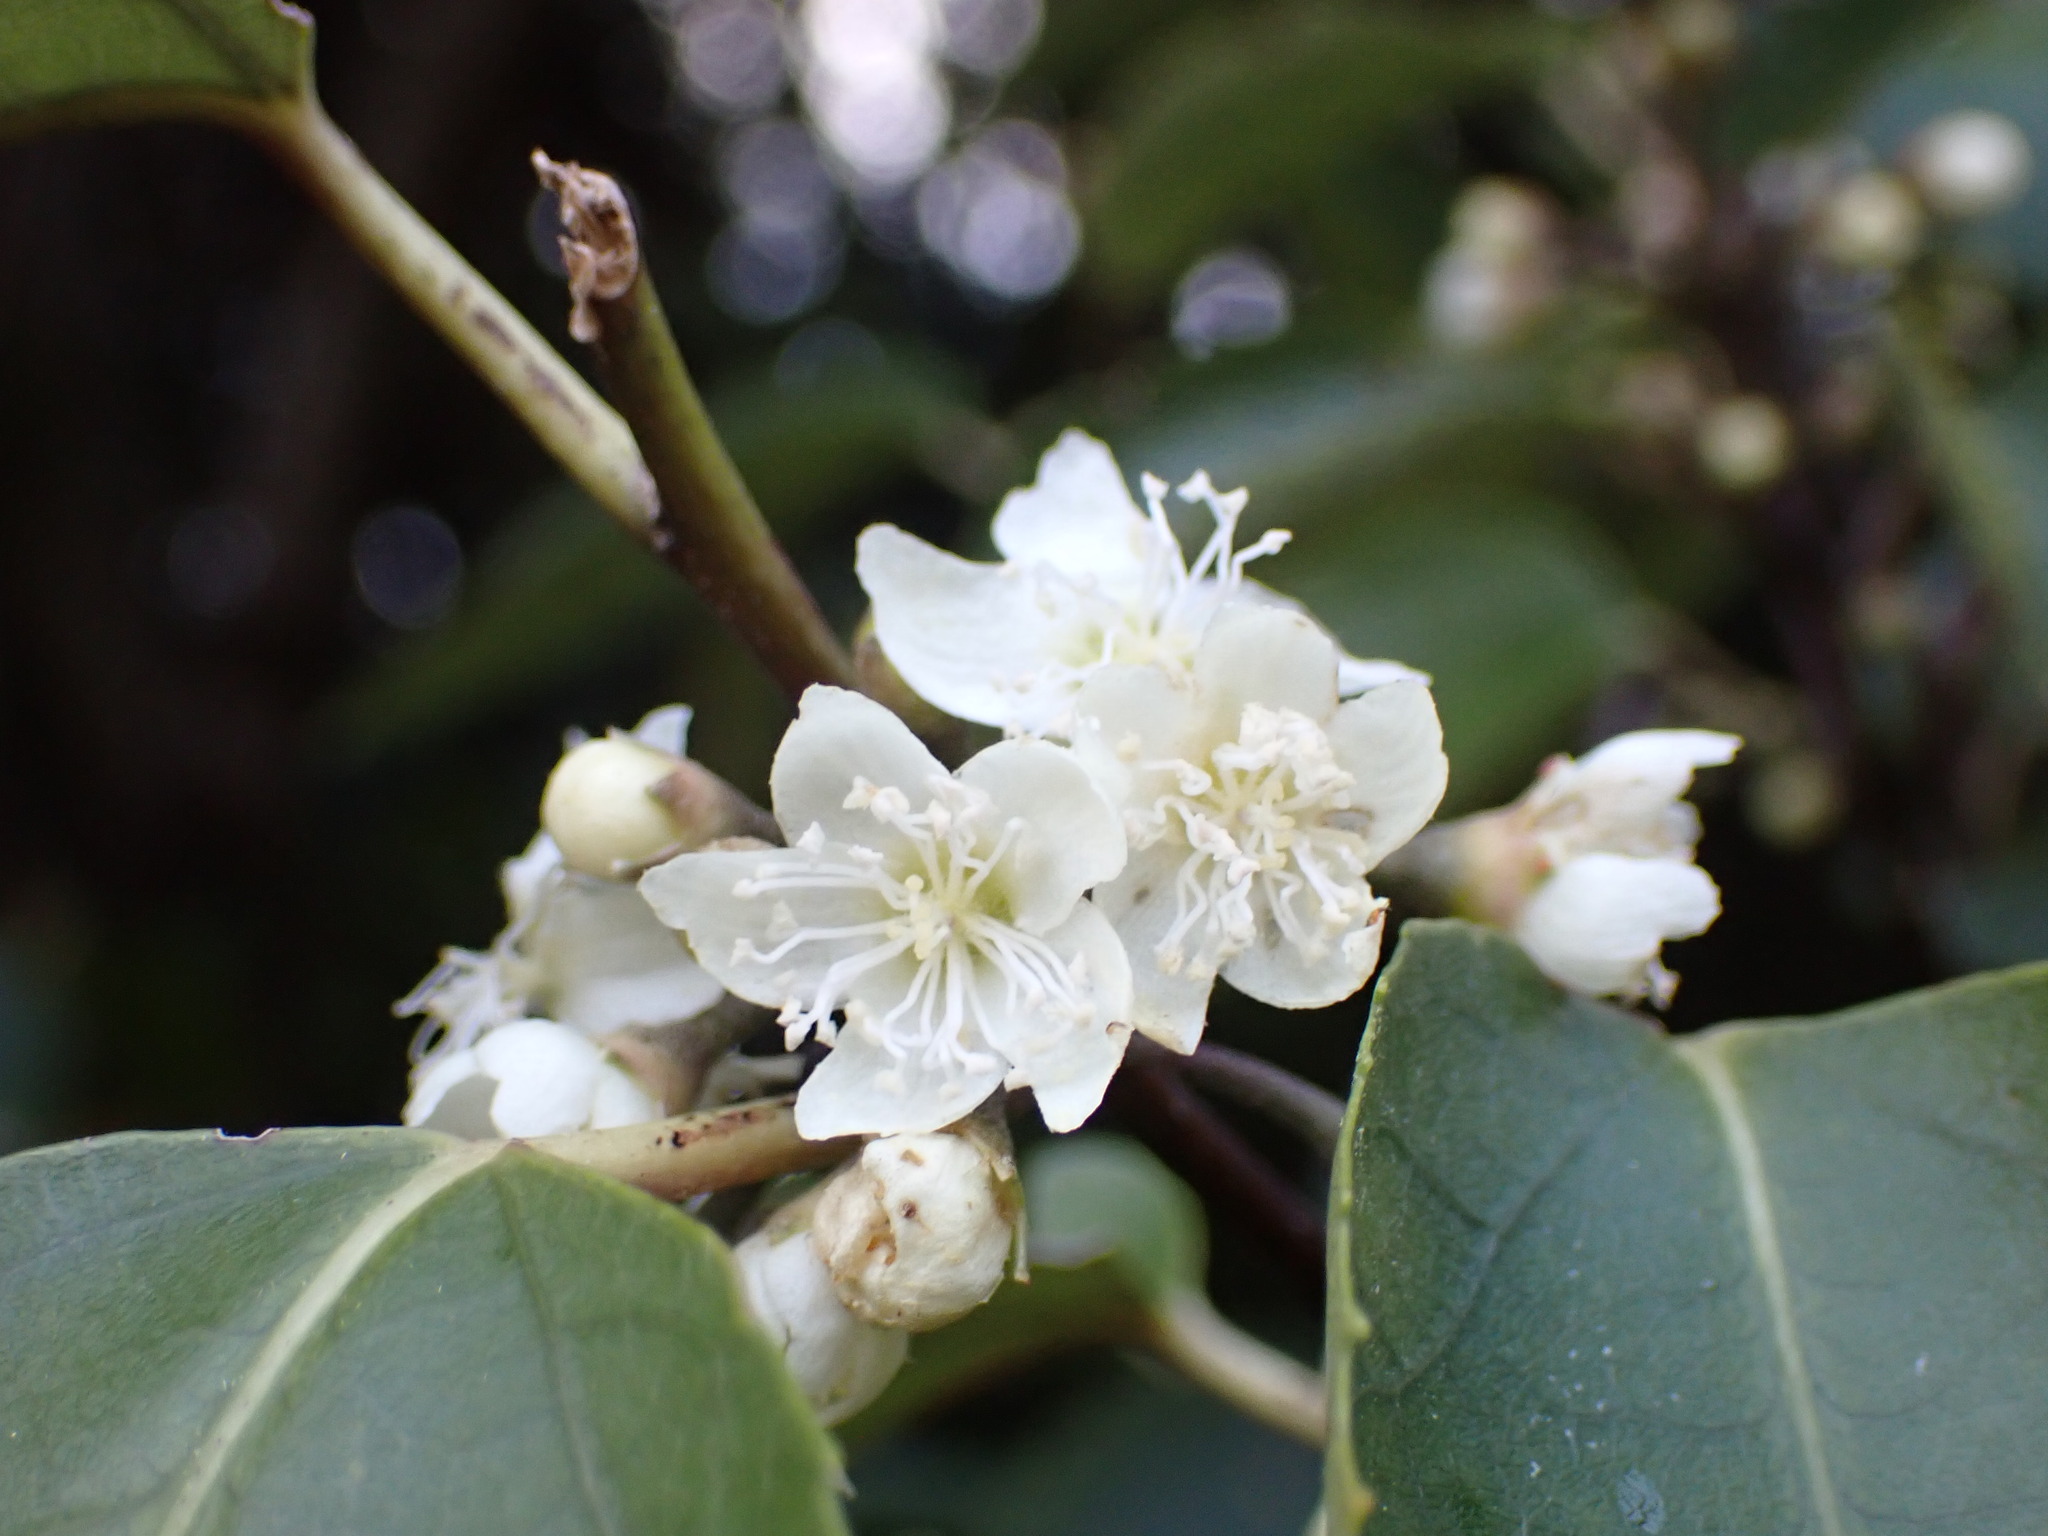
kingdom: Plantae
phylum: Tracheophyta
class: Magnoliopsida
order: Malvales
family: Malvaceae
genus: Hoheria
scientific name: Hoheria populnea
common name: Lacebark
